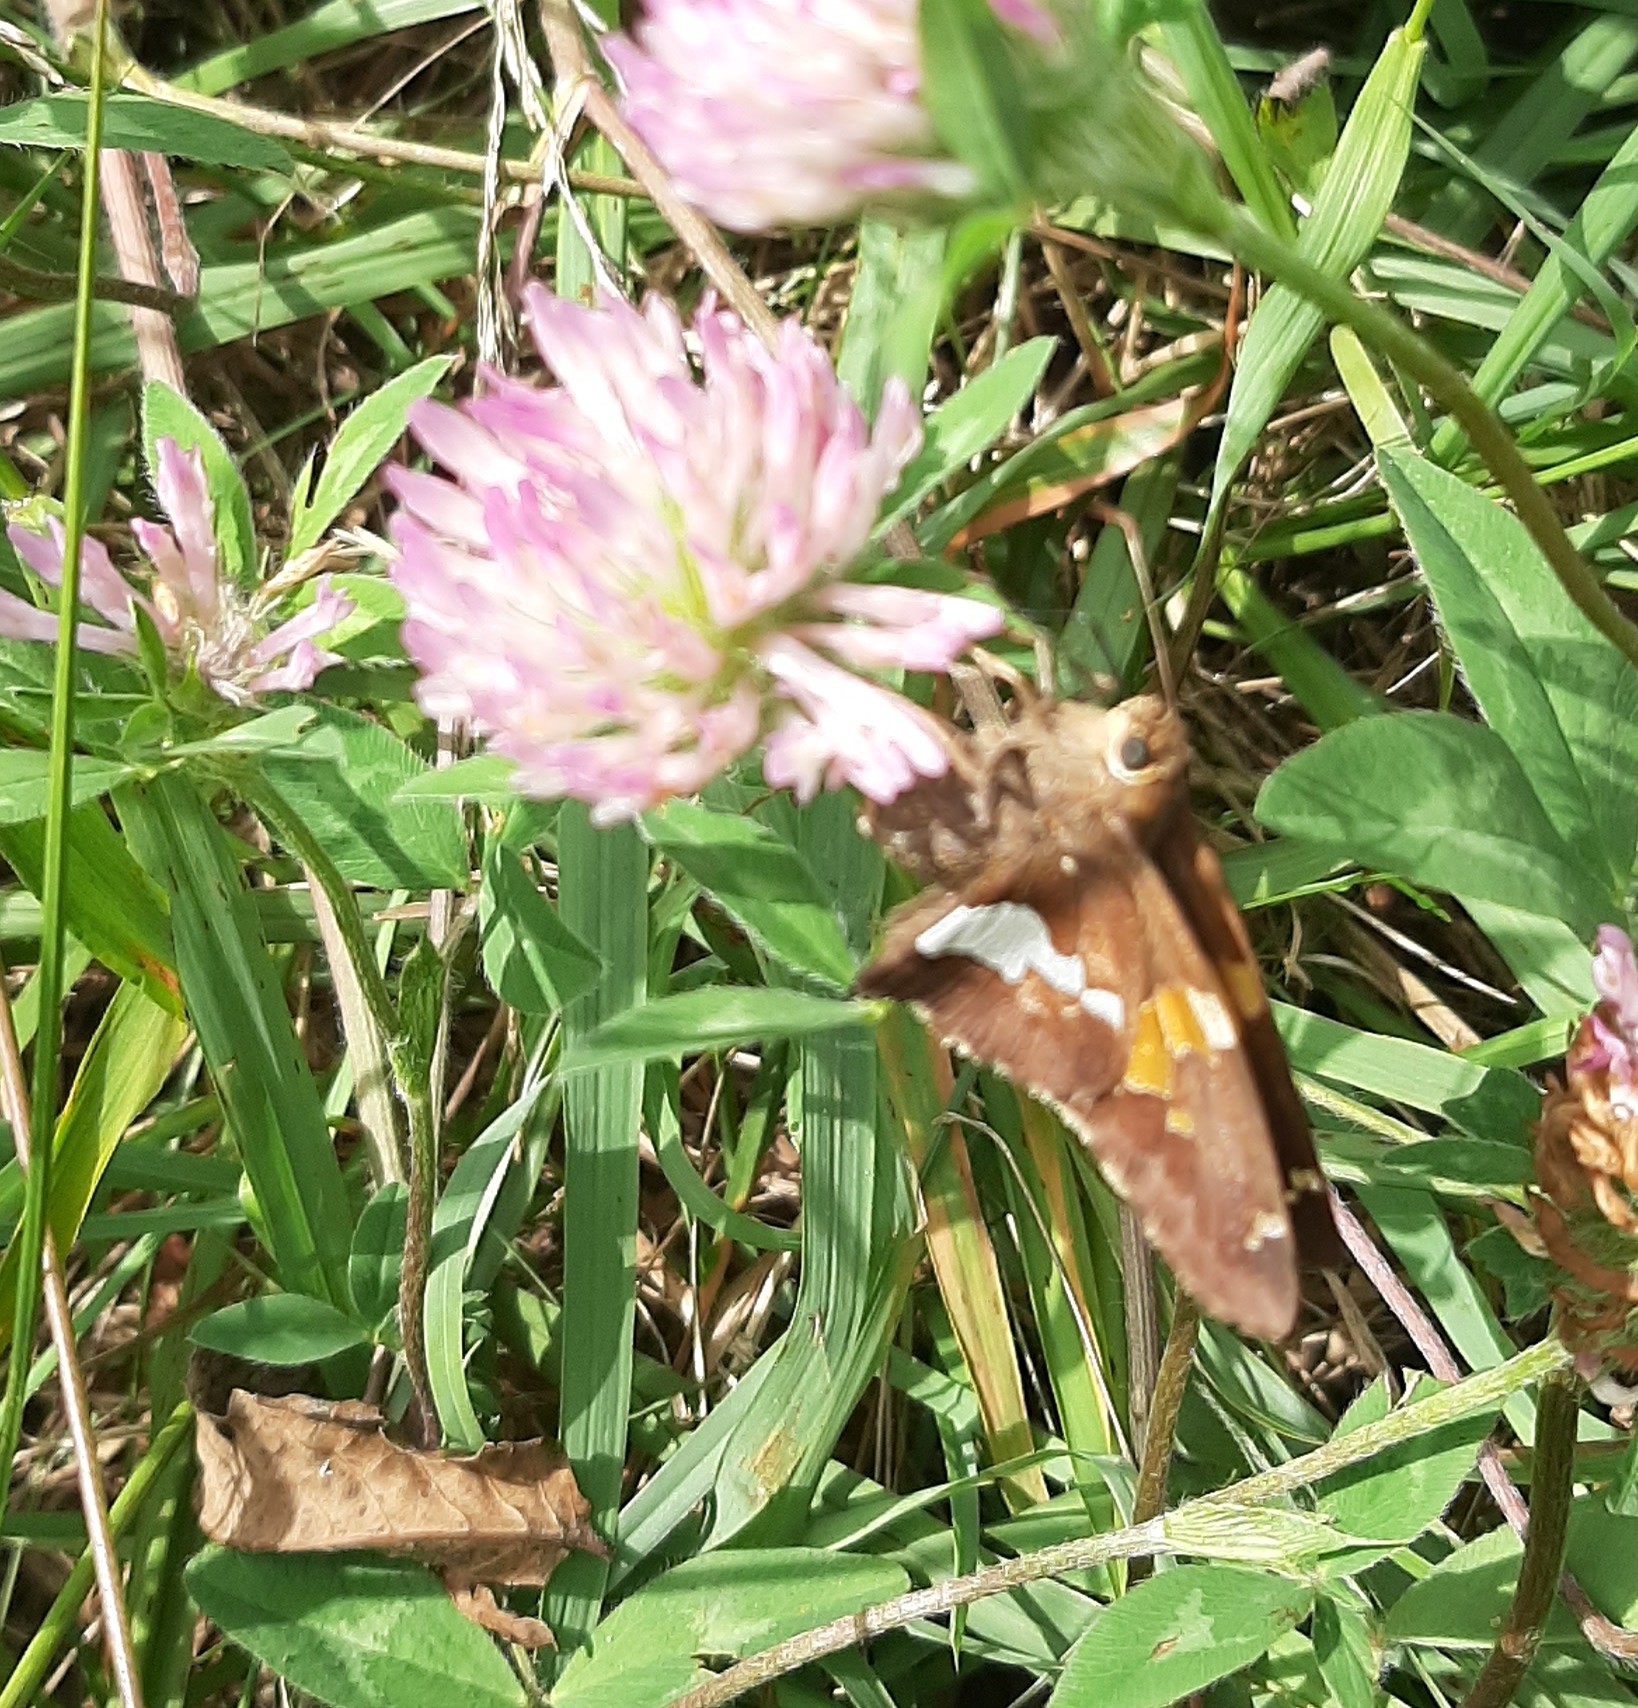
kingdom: Animalia
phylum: Arthropoda
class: Insecta
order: Lepidoptera
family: Hesperiidae
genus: Epargyreus
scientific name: Epargyreus clarus
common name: Silver-spotted skipper
